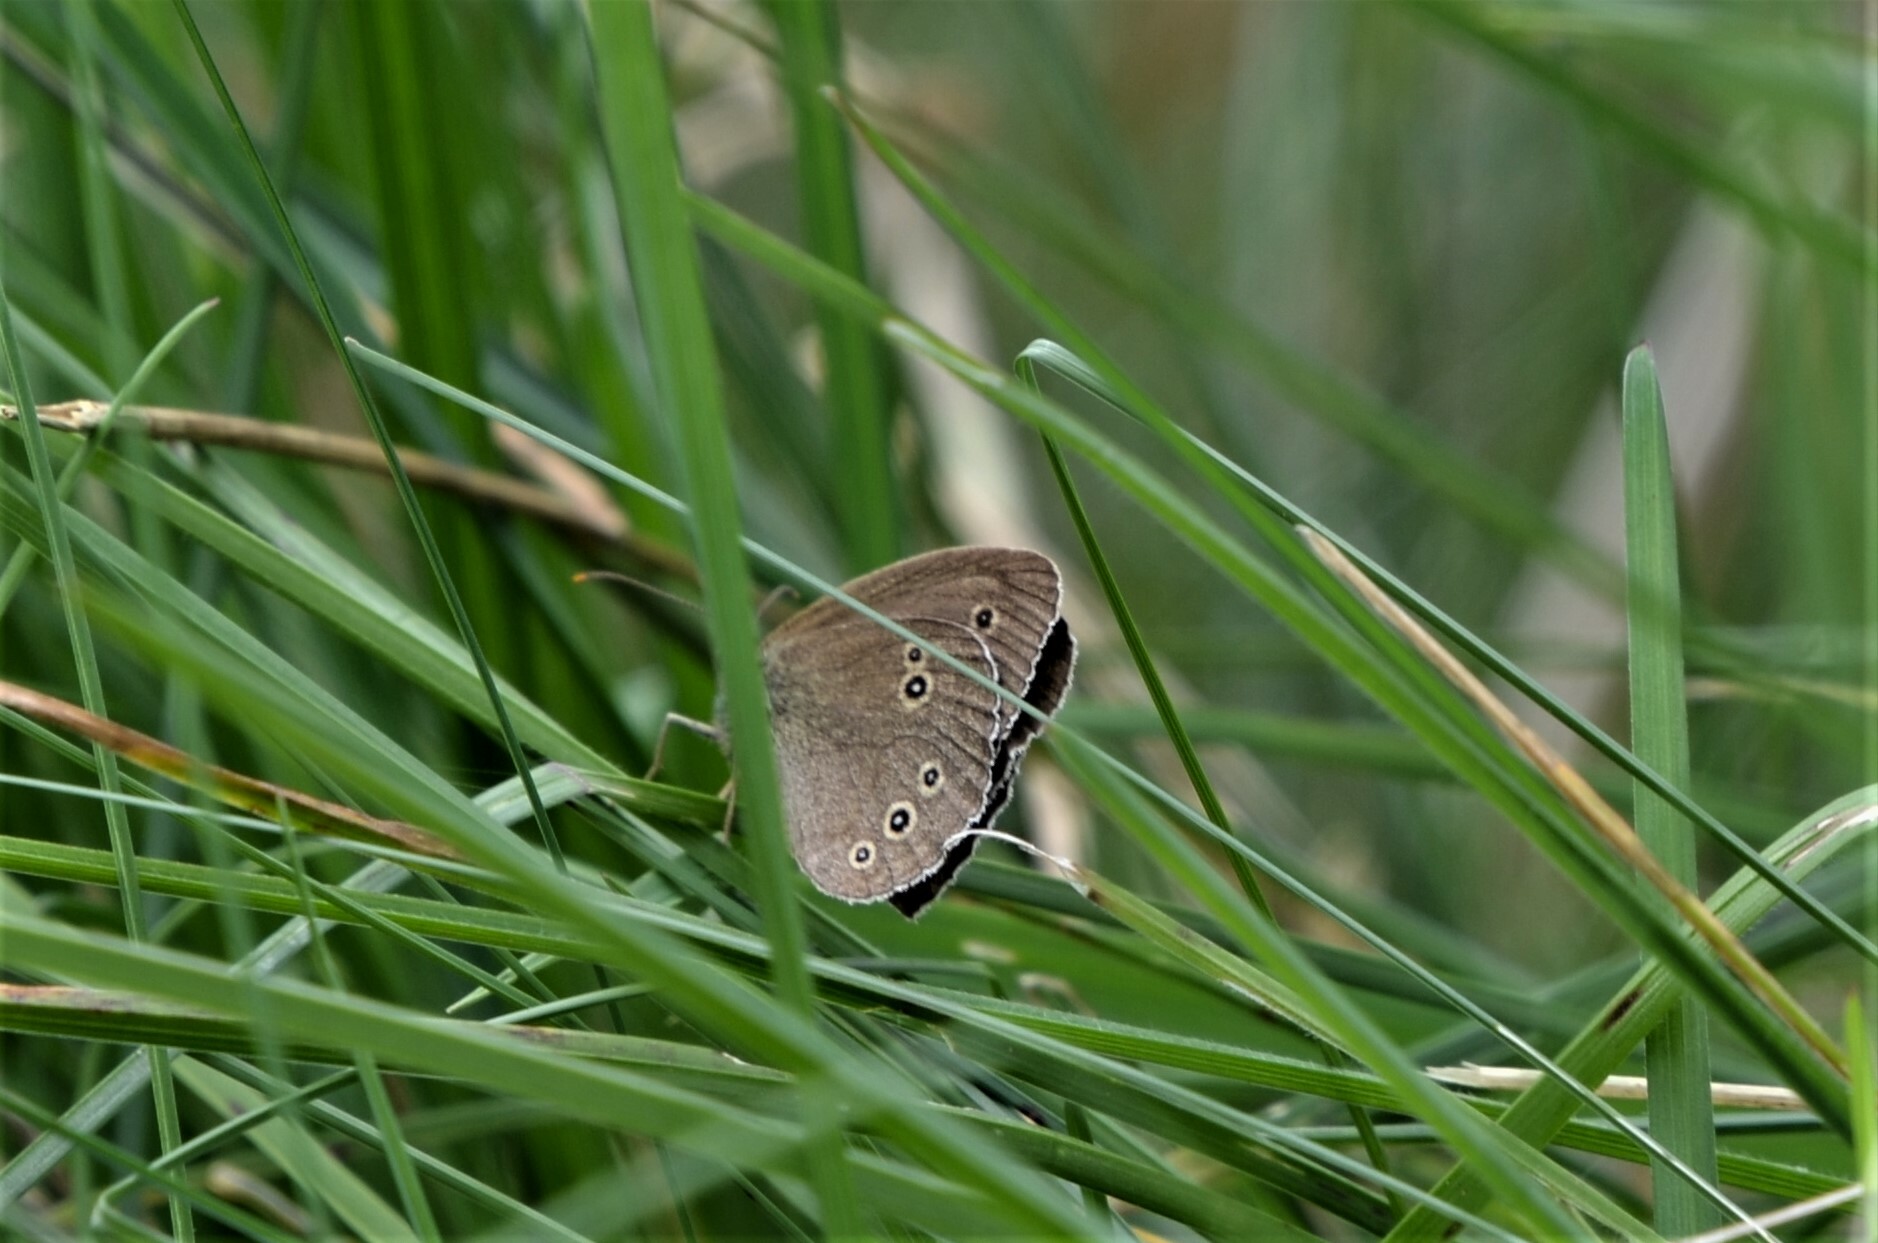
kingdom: Animalia
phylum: Arthropoda
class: Insecta
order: Lepidoptera
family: Nymphalidae
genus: Aphantopus
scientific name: Aphantopus hyperantus
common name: Ringlet
